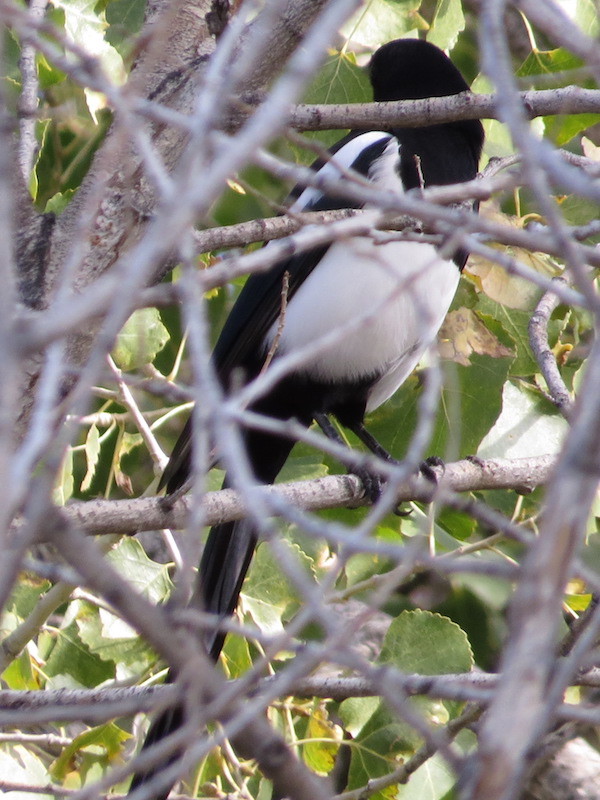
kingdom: Animalia
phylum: Chordata
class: Aves
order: Passeriformes
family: Corvidae
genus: Pica
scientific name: Pica hudsonia
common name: Black-billed magpie
